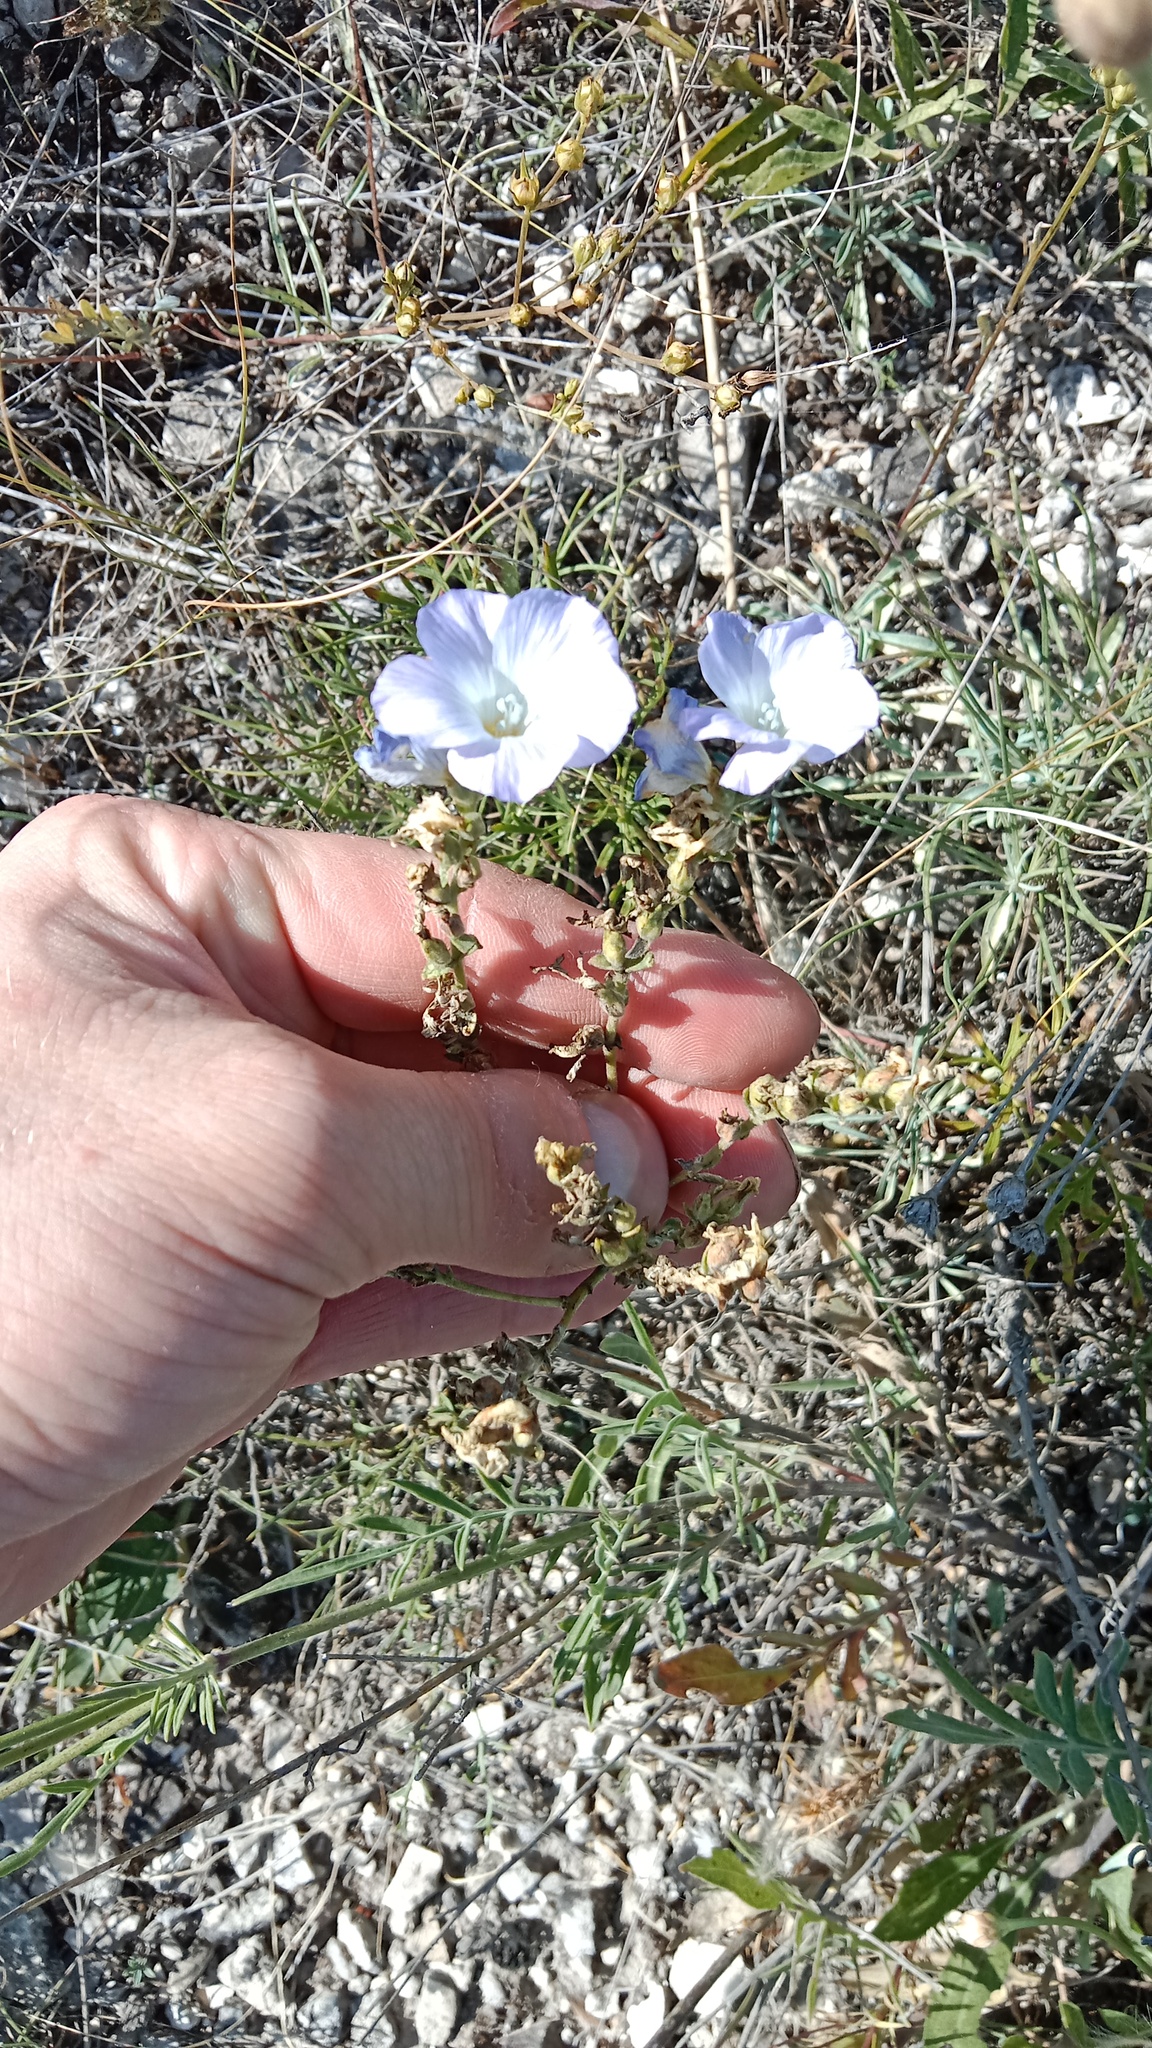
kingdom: Plantae
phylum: Tracheophyta
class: Magnoliopsida
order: Malpighiales
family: Linaceae
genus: Linum
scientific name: Linum hirsutum
